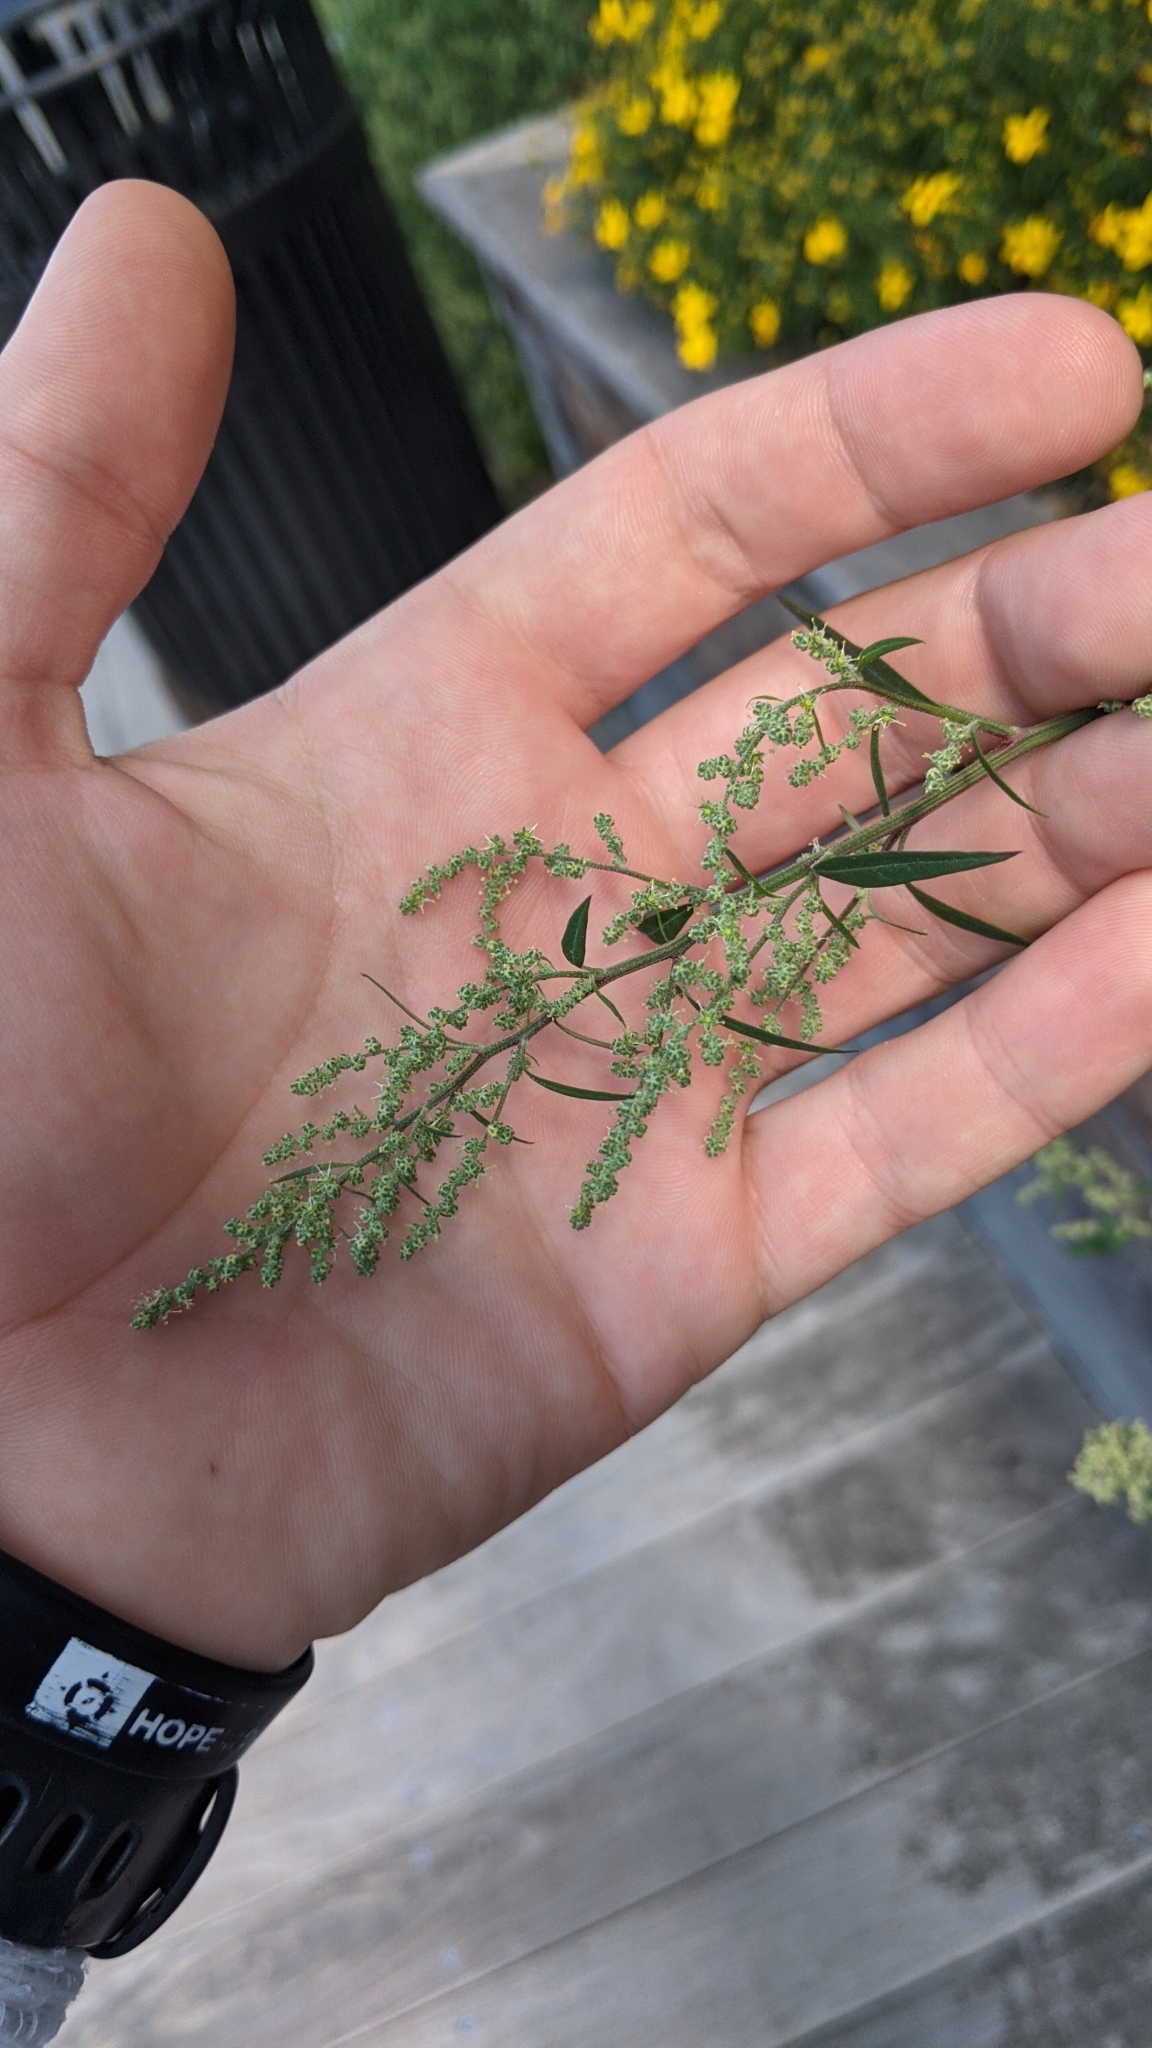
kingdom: Plantae
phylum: Tracheophyta
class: Magnoliopsida
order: Caryophyllales
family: Amaranthaceae
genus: Chenopodium
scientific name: Chenopodium album
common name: Fat-hen
